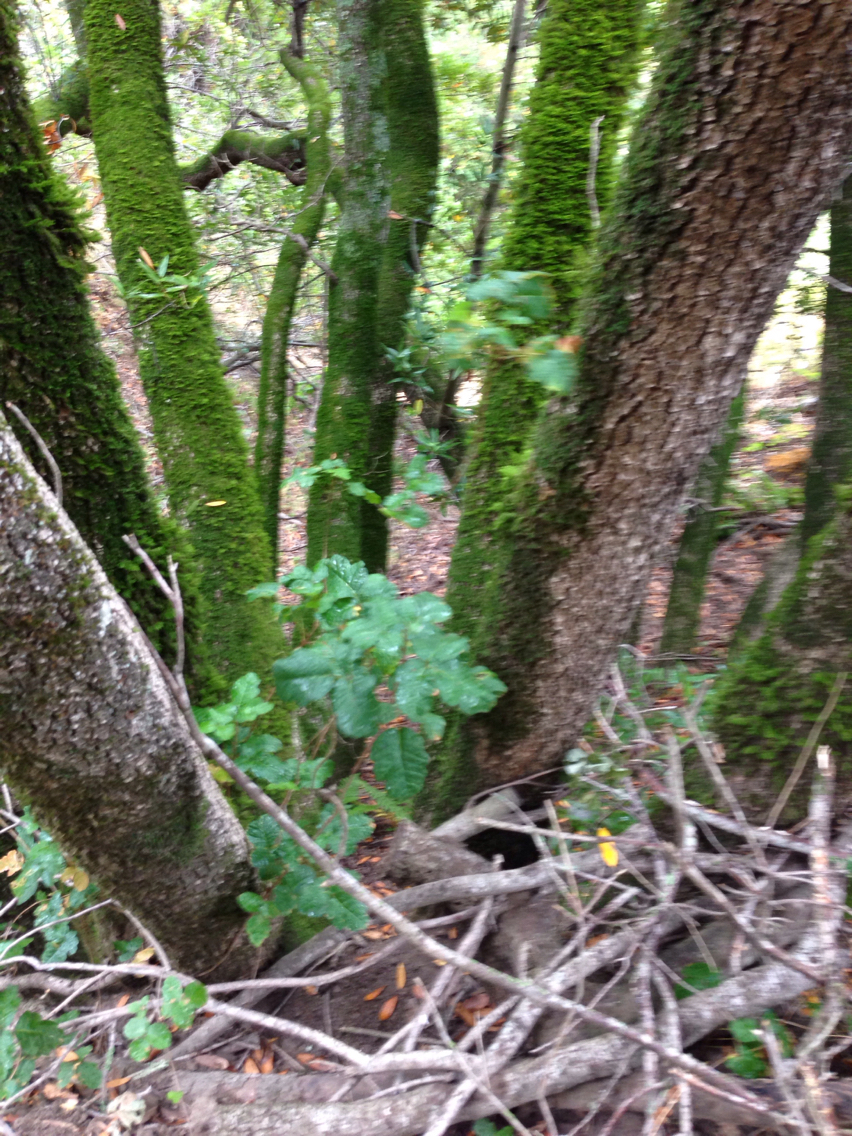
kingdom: Plantae
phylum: Tracheophyta
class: Magnoliopsida
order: Sapindales
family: Anacardiaceae
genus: Toxicodendron
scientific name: Toxicodendron diversilobum
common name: Pacific poison-oak
